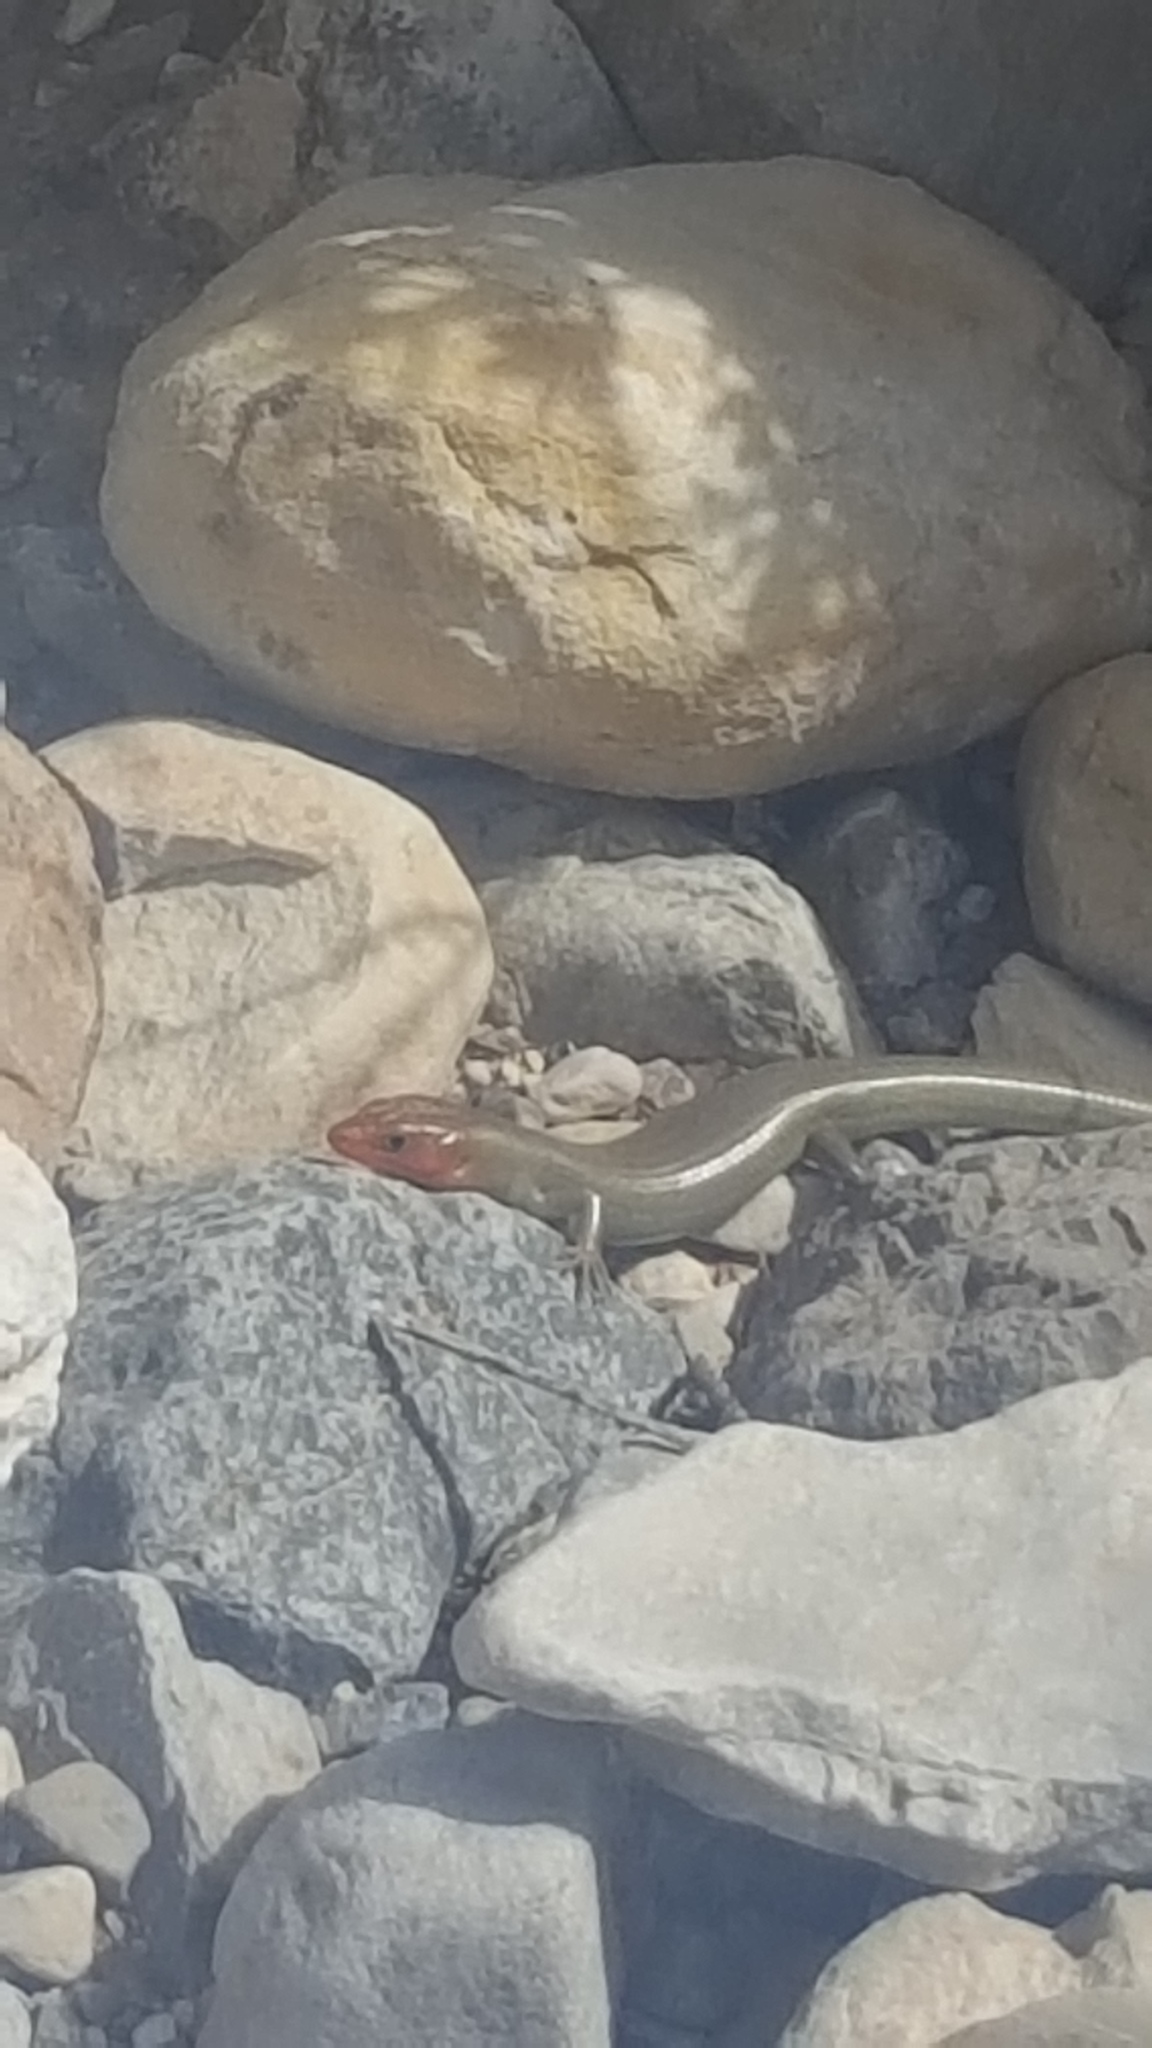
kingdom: Animalia
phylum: Chordata
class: Squamata
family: Scincidae
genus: Plestiodon
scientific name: Plestiodon gilberti
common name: Gilbert's skink
